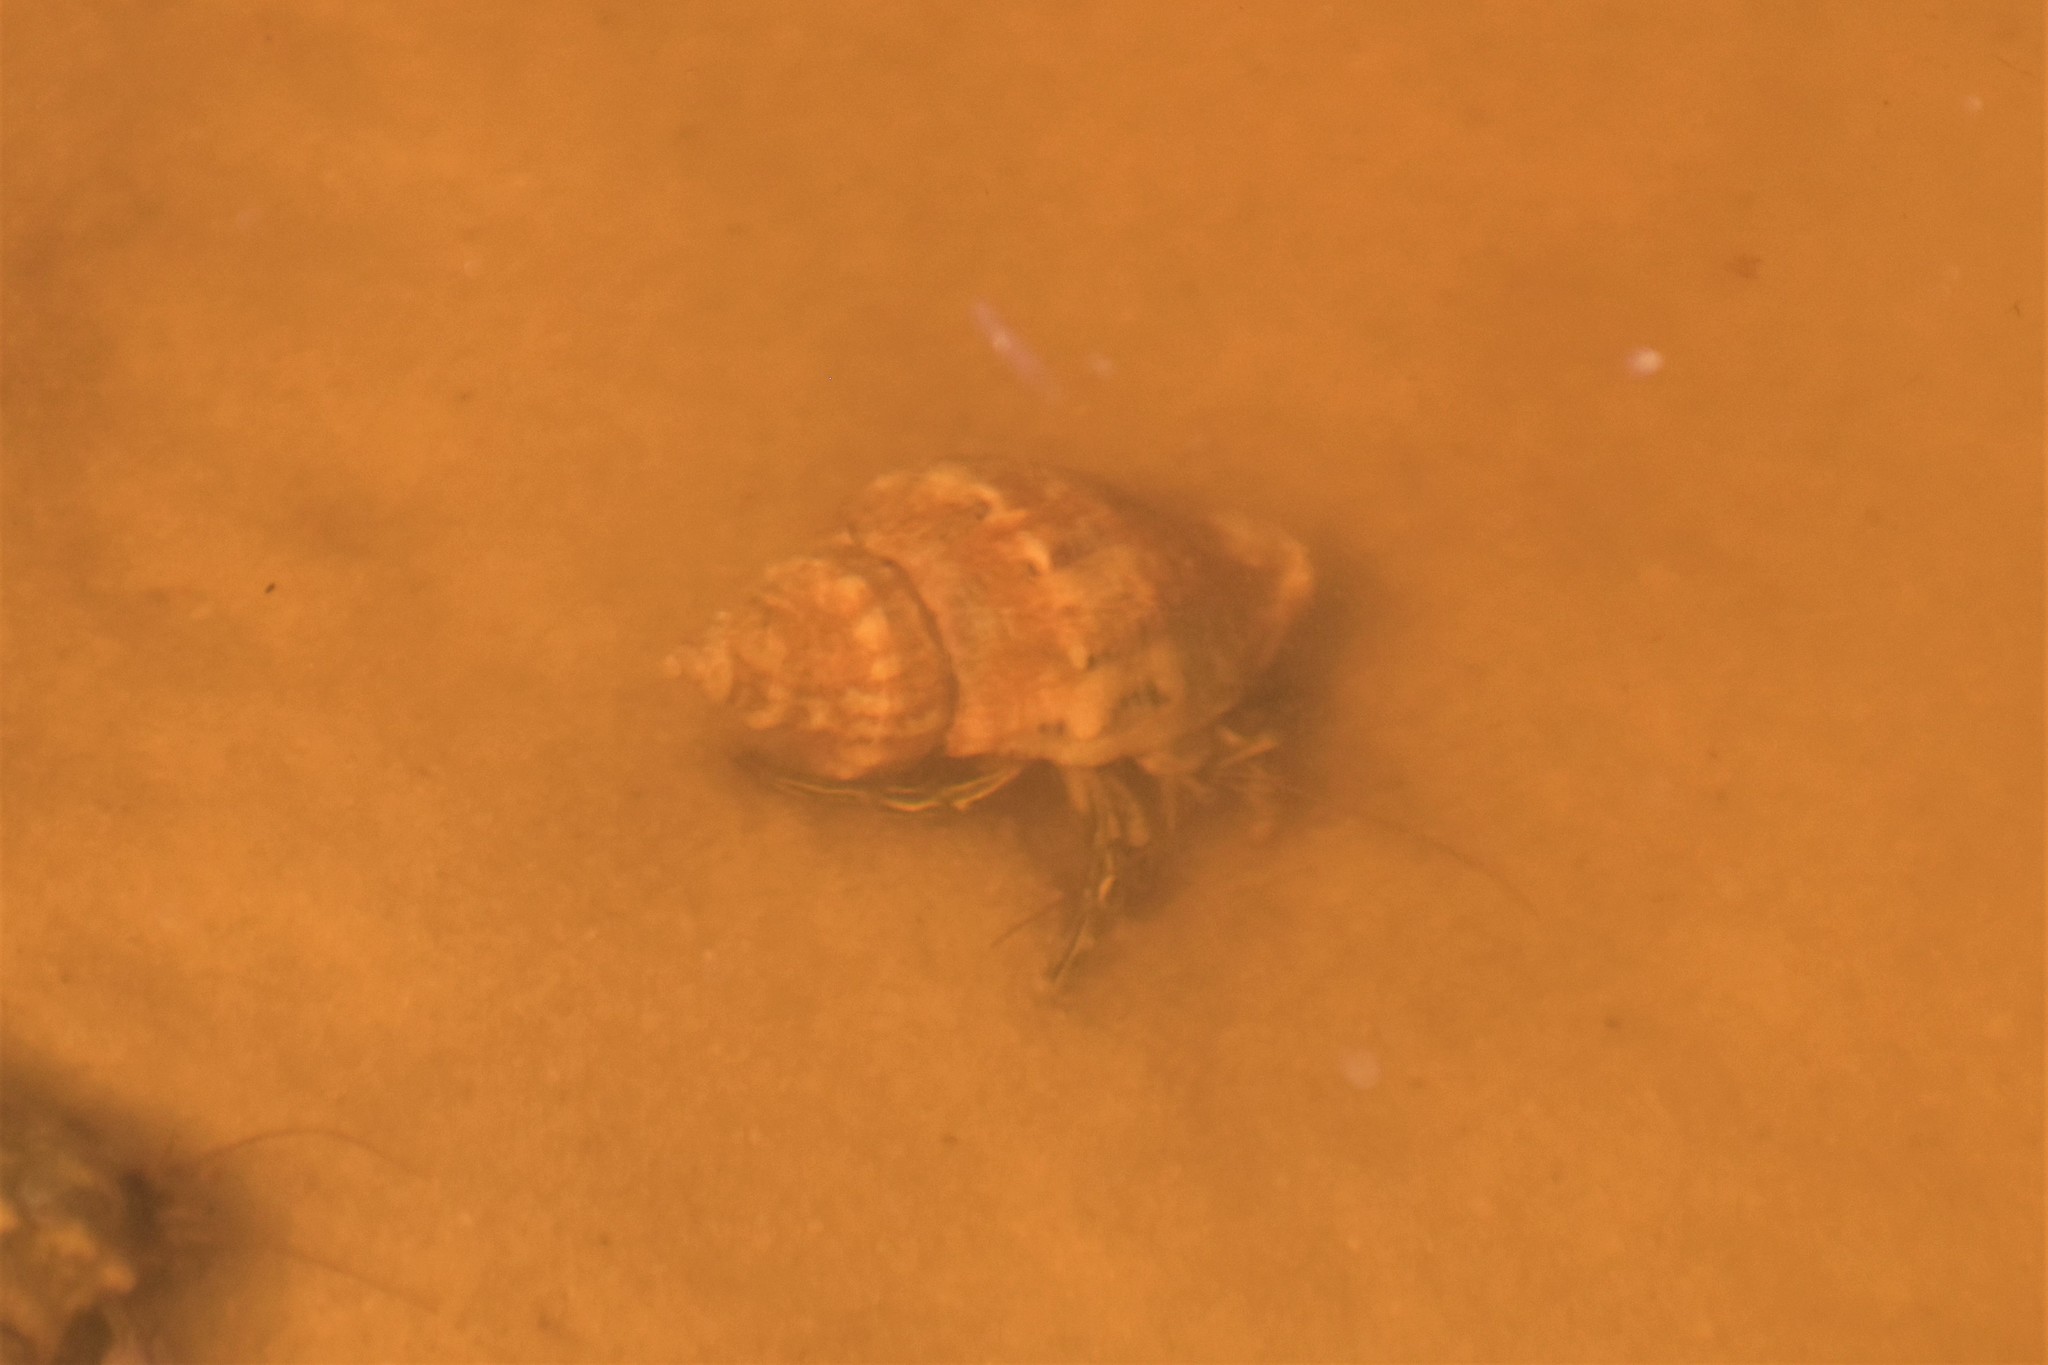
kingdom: Animalia
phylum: Arthropoda
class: Malacostraca
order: Decapoda
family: Diogenidae
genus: Clibanarius
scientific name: Clibanarius vittatus
